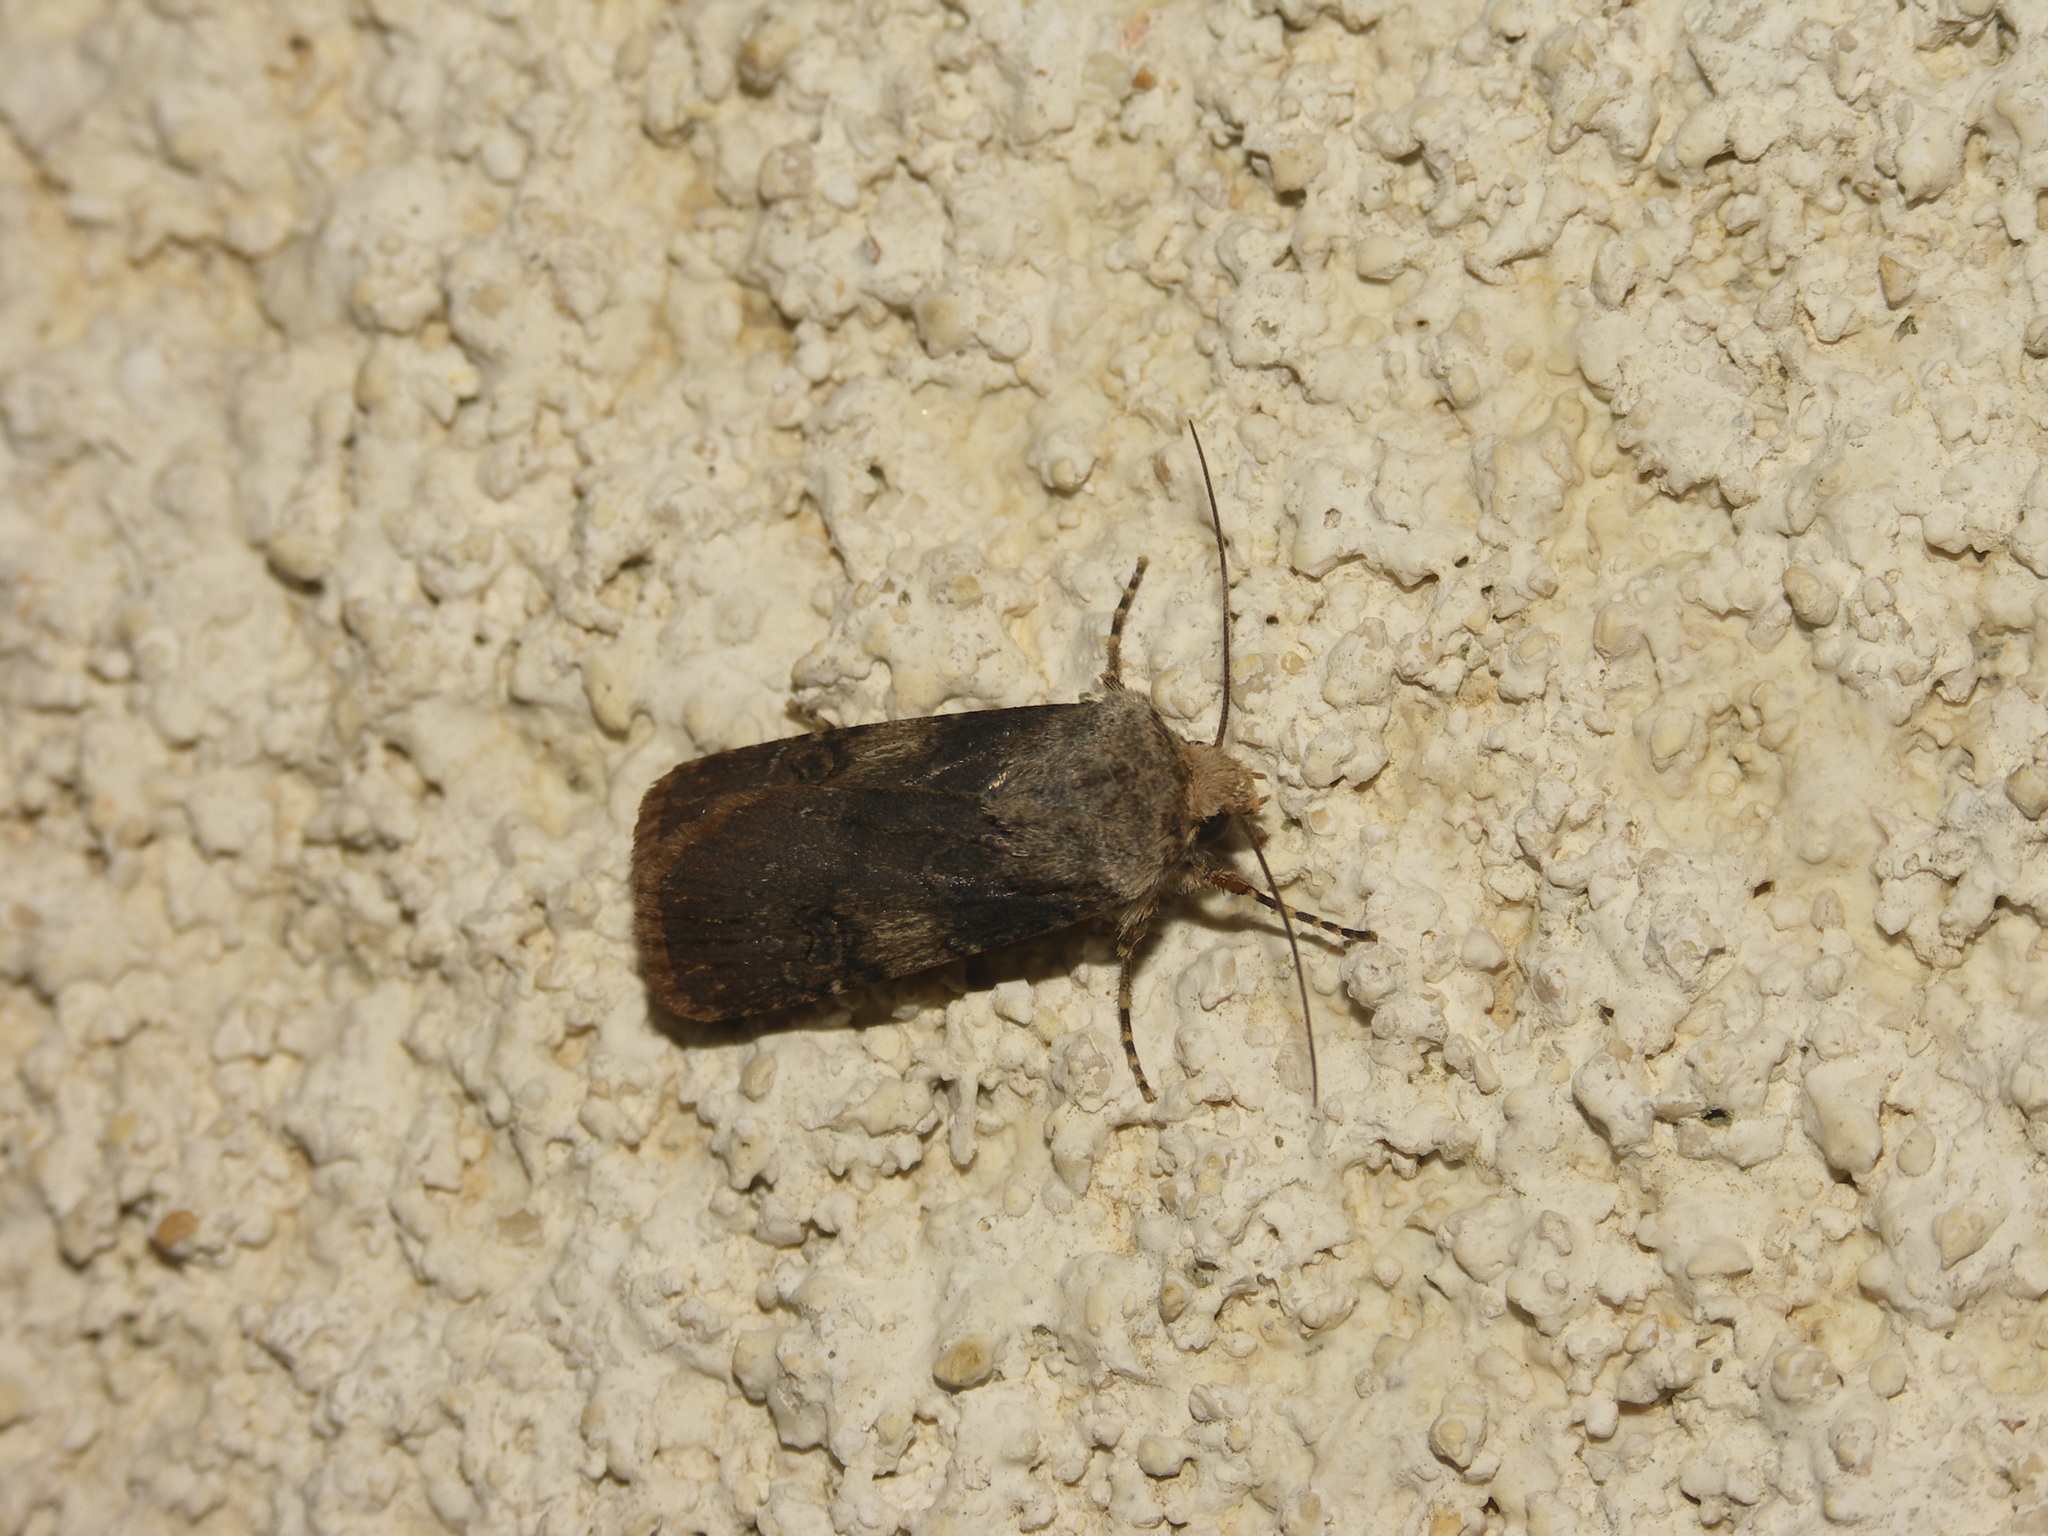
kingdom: Animalia
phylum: Arthropoda
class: Insecta
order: Lepidoptera
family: Noctuidae
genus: Agrotis
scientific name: Agrotis puta
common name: Shuttle-shaped dart
